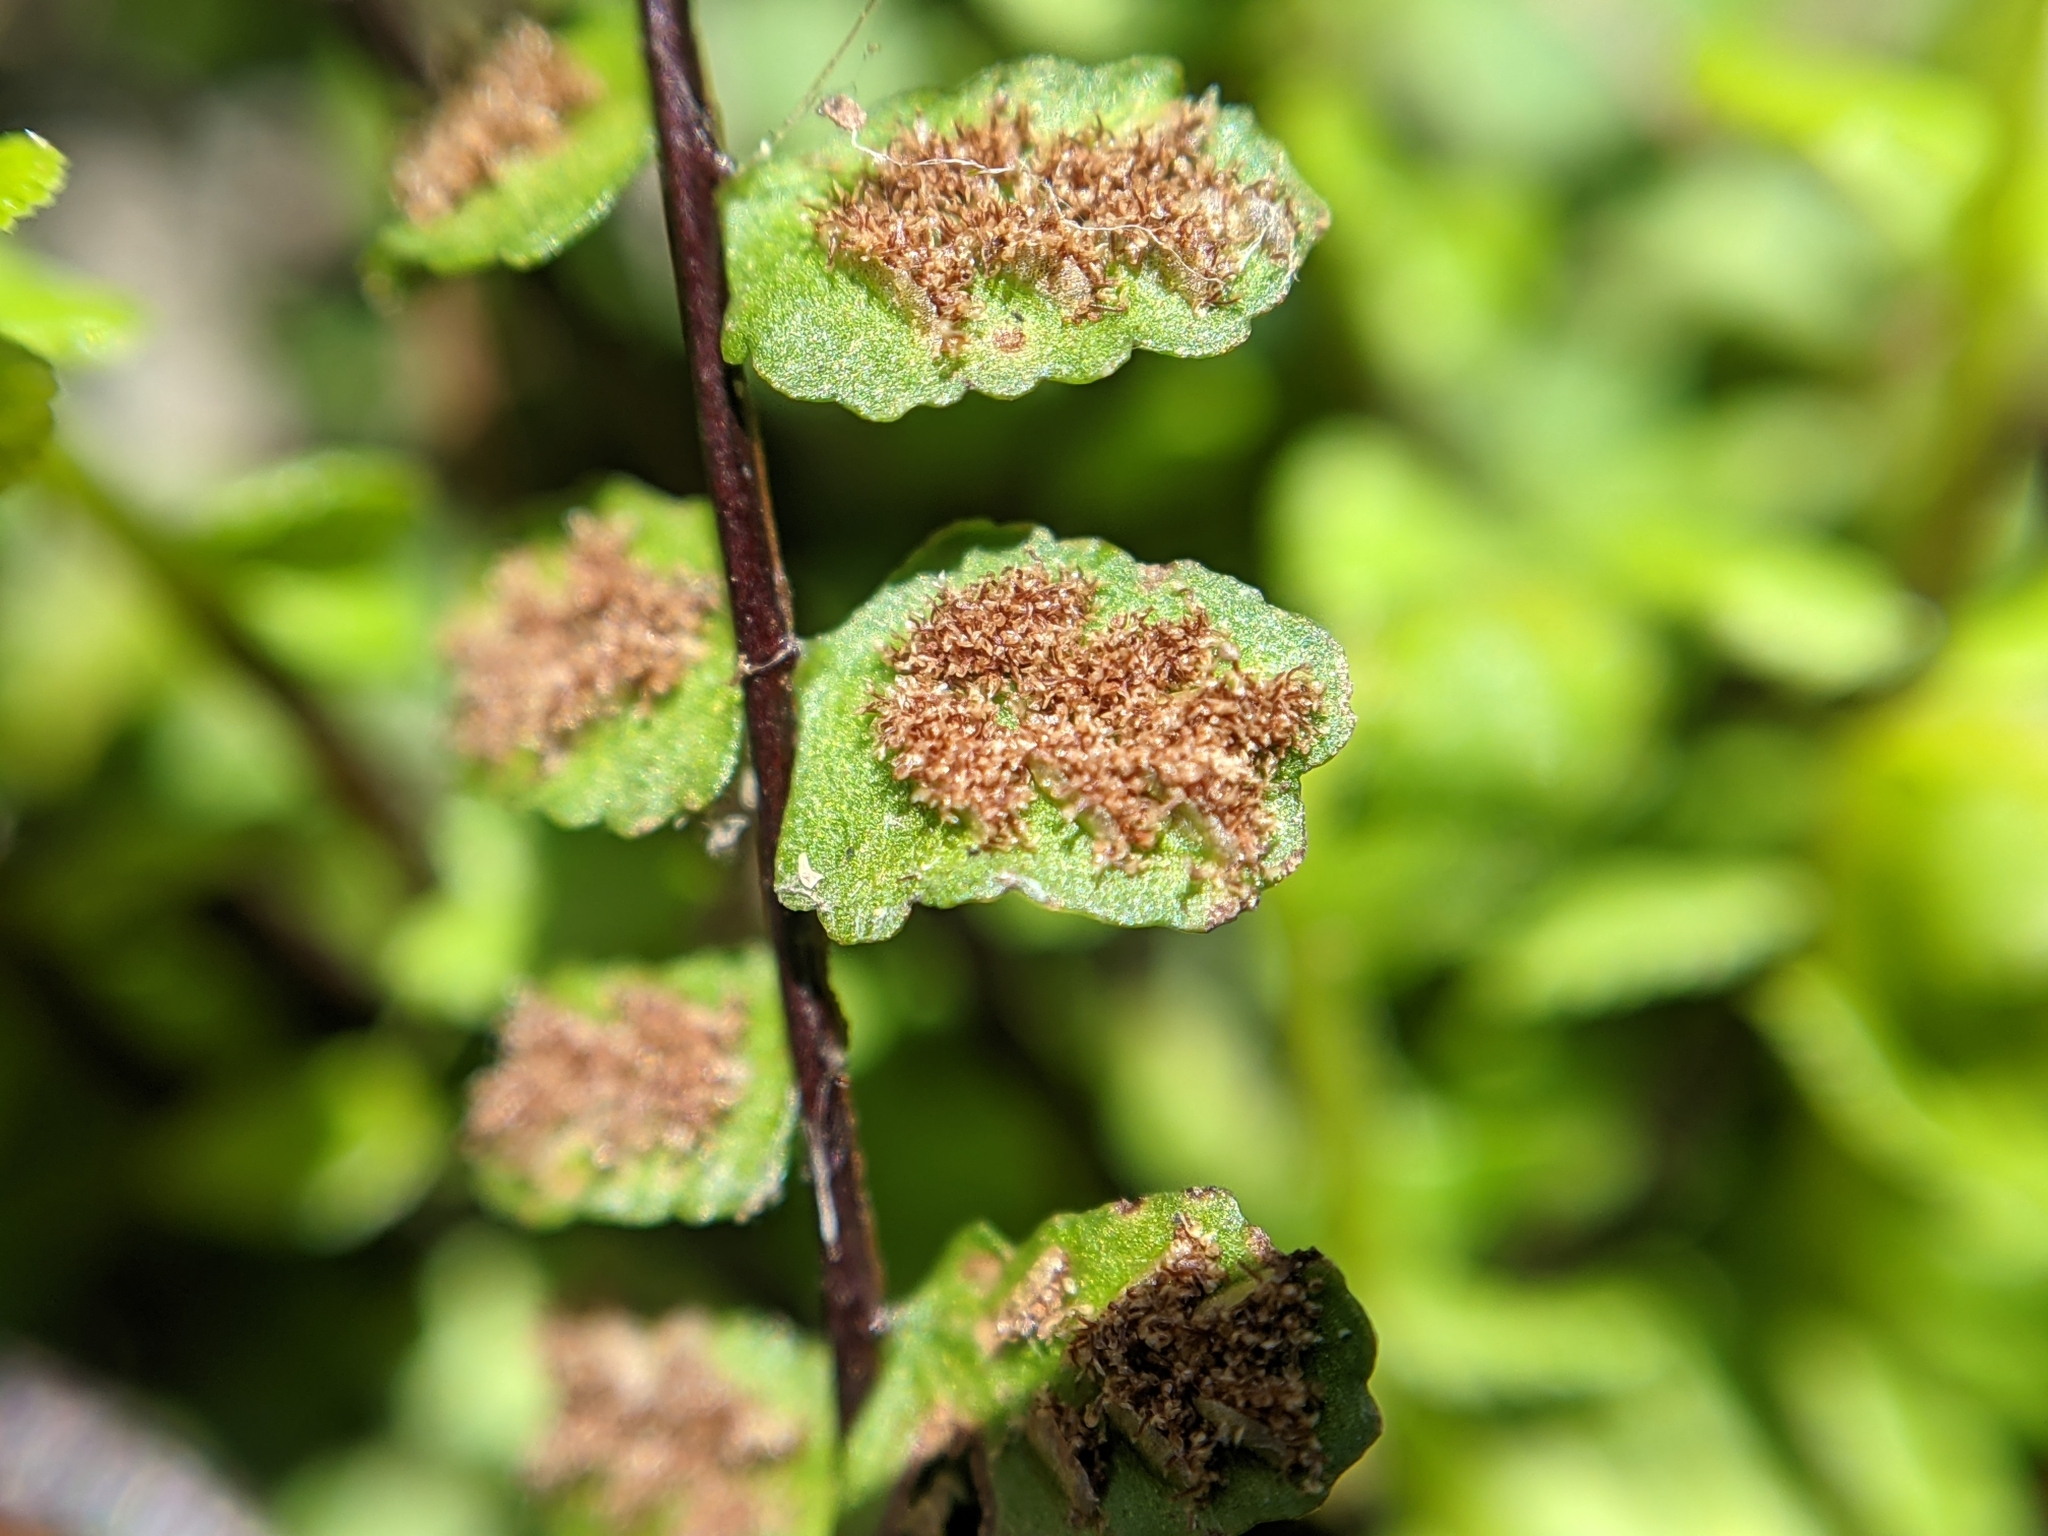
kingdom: Plantae
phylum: Tracheophyta
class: Polypodiopsida
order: Polypodiales
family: Aspleniaceae
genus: Asplenium
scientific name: Asplenium trichomanes
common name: Maidenhair spleenwort
